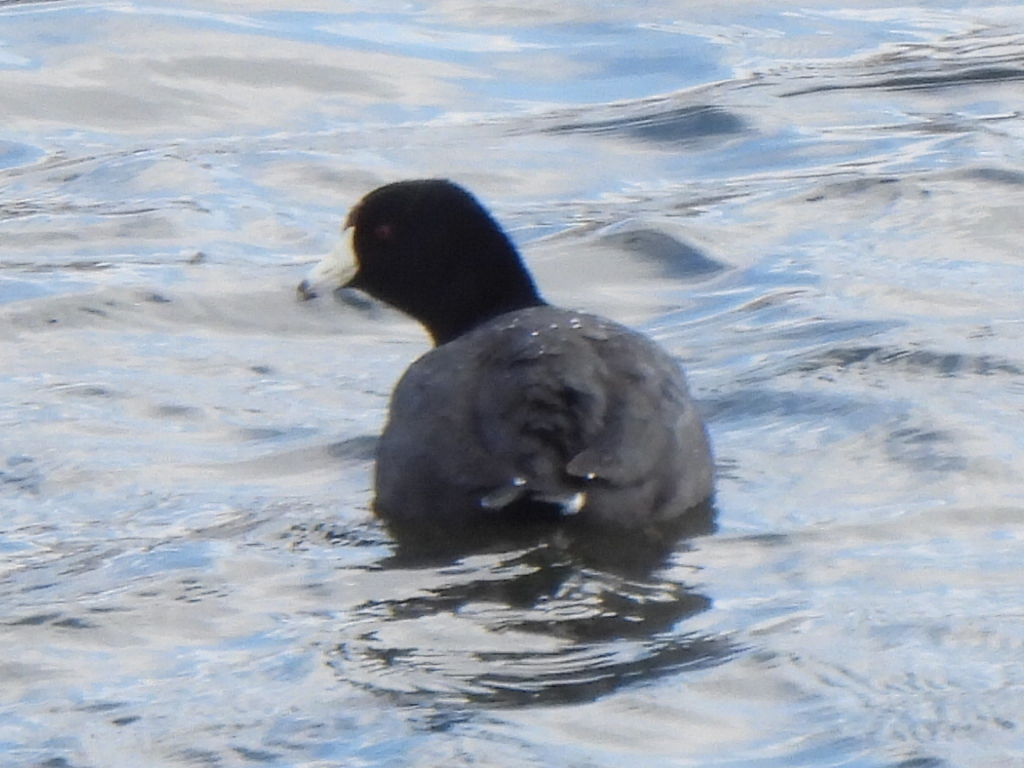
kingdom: Animalia
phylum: Chordata
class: Aves
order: Gruiformes
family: Rallidae
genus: Fulica
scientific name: Fulica americana
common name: American coot
